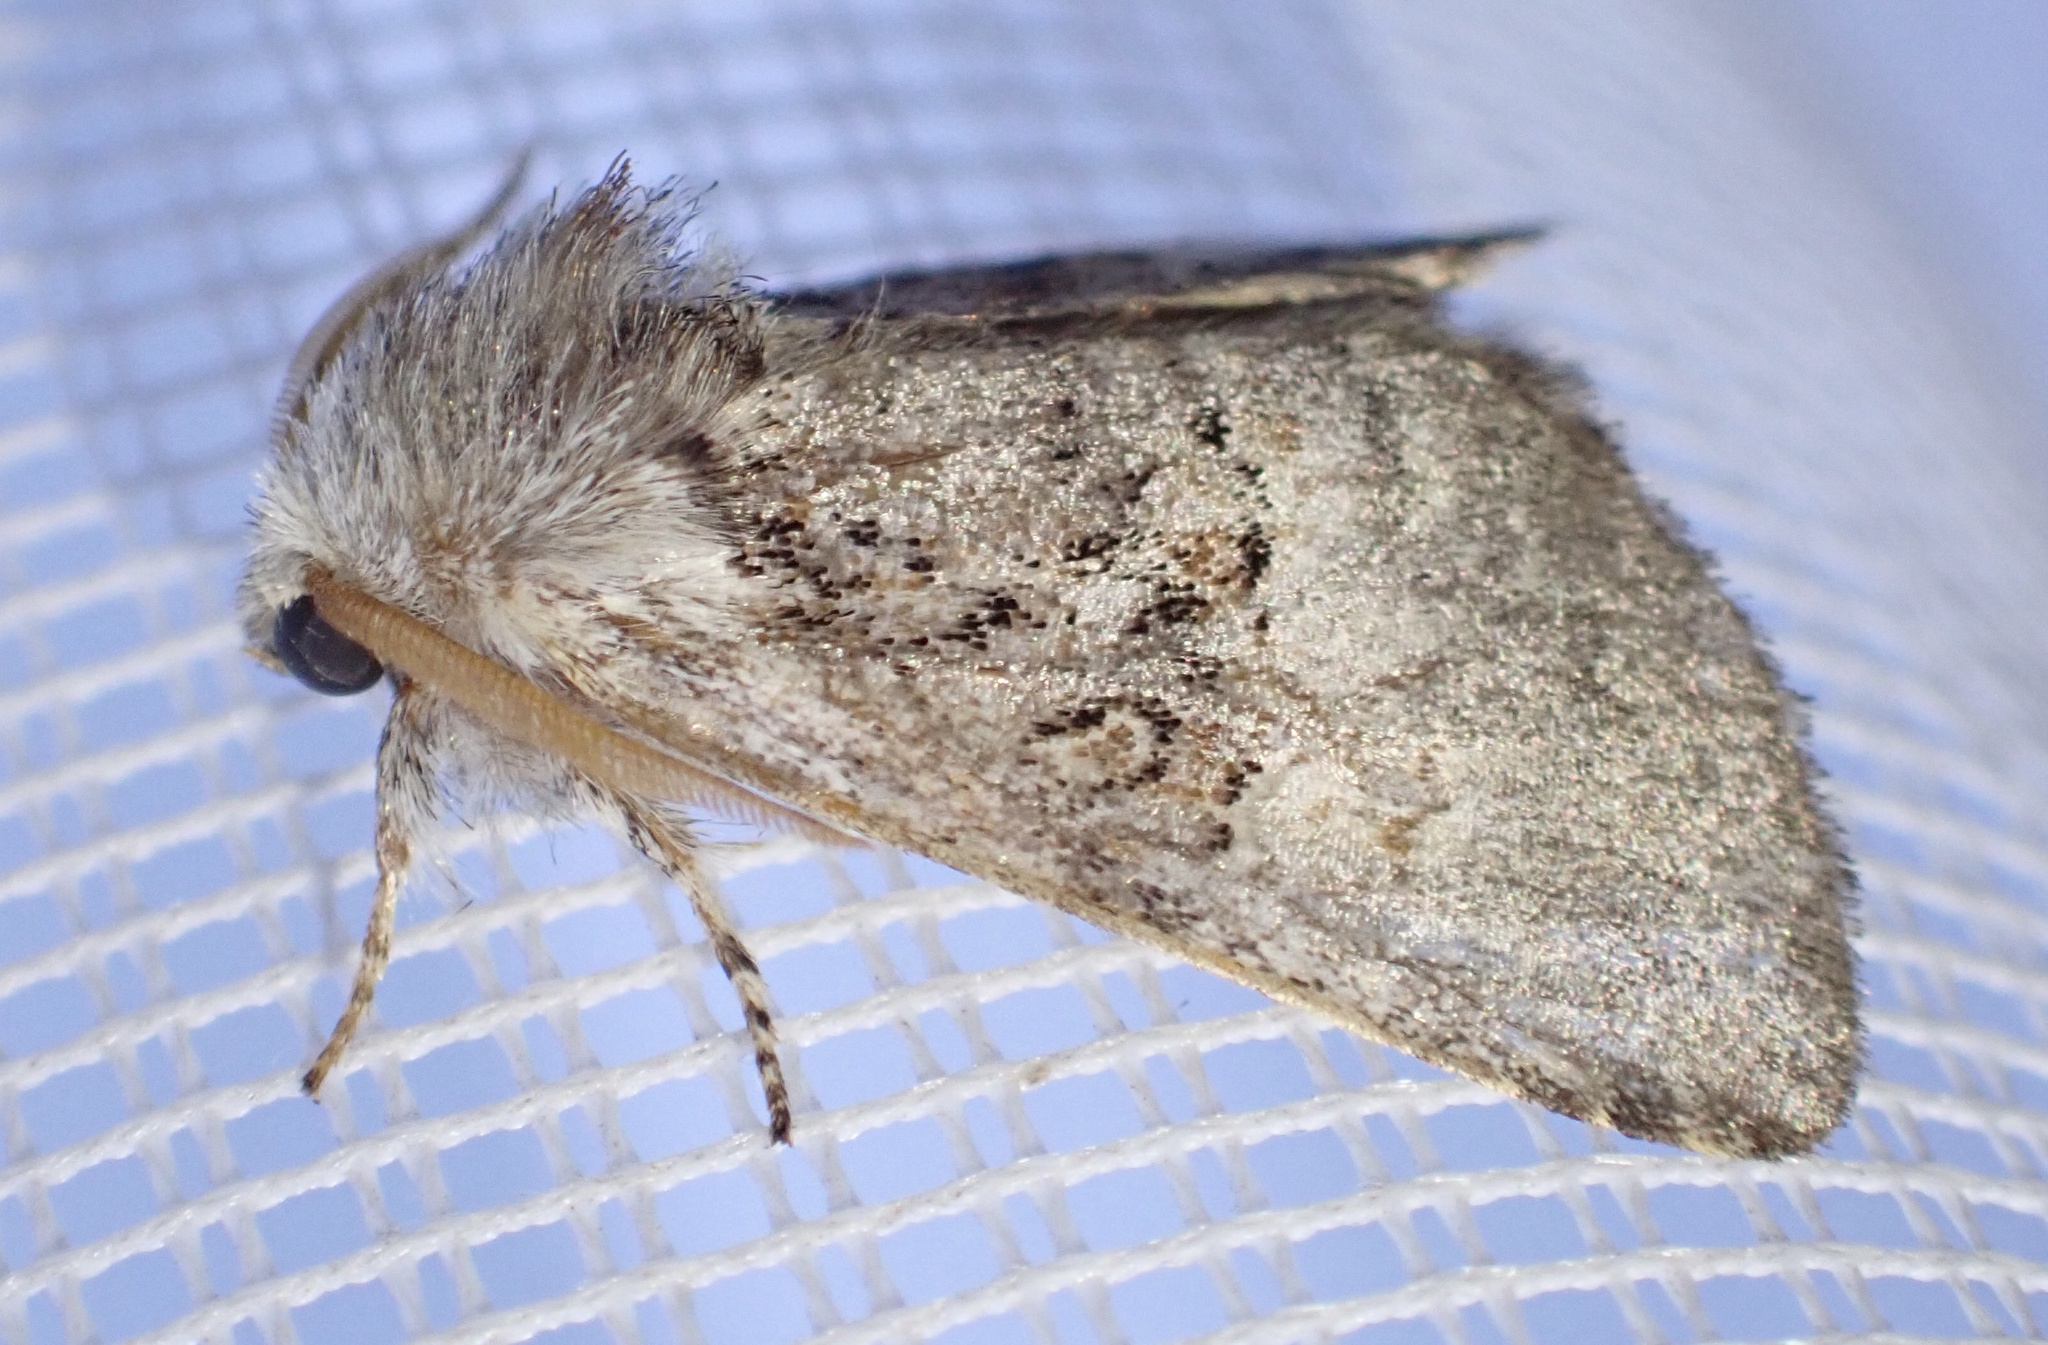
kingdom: Animalia
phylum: Arthropoda
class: Insecta
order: Lepidoptera
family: Noctuidae
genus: Colocasia
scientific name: Colocasia coryli
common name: Nut-tree tussock
